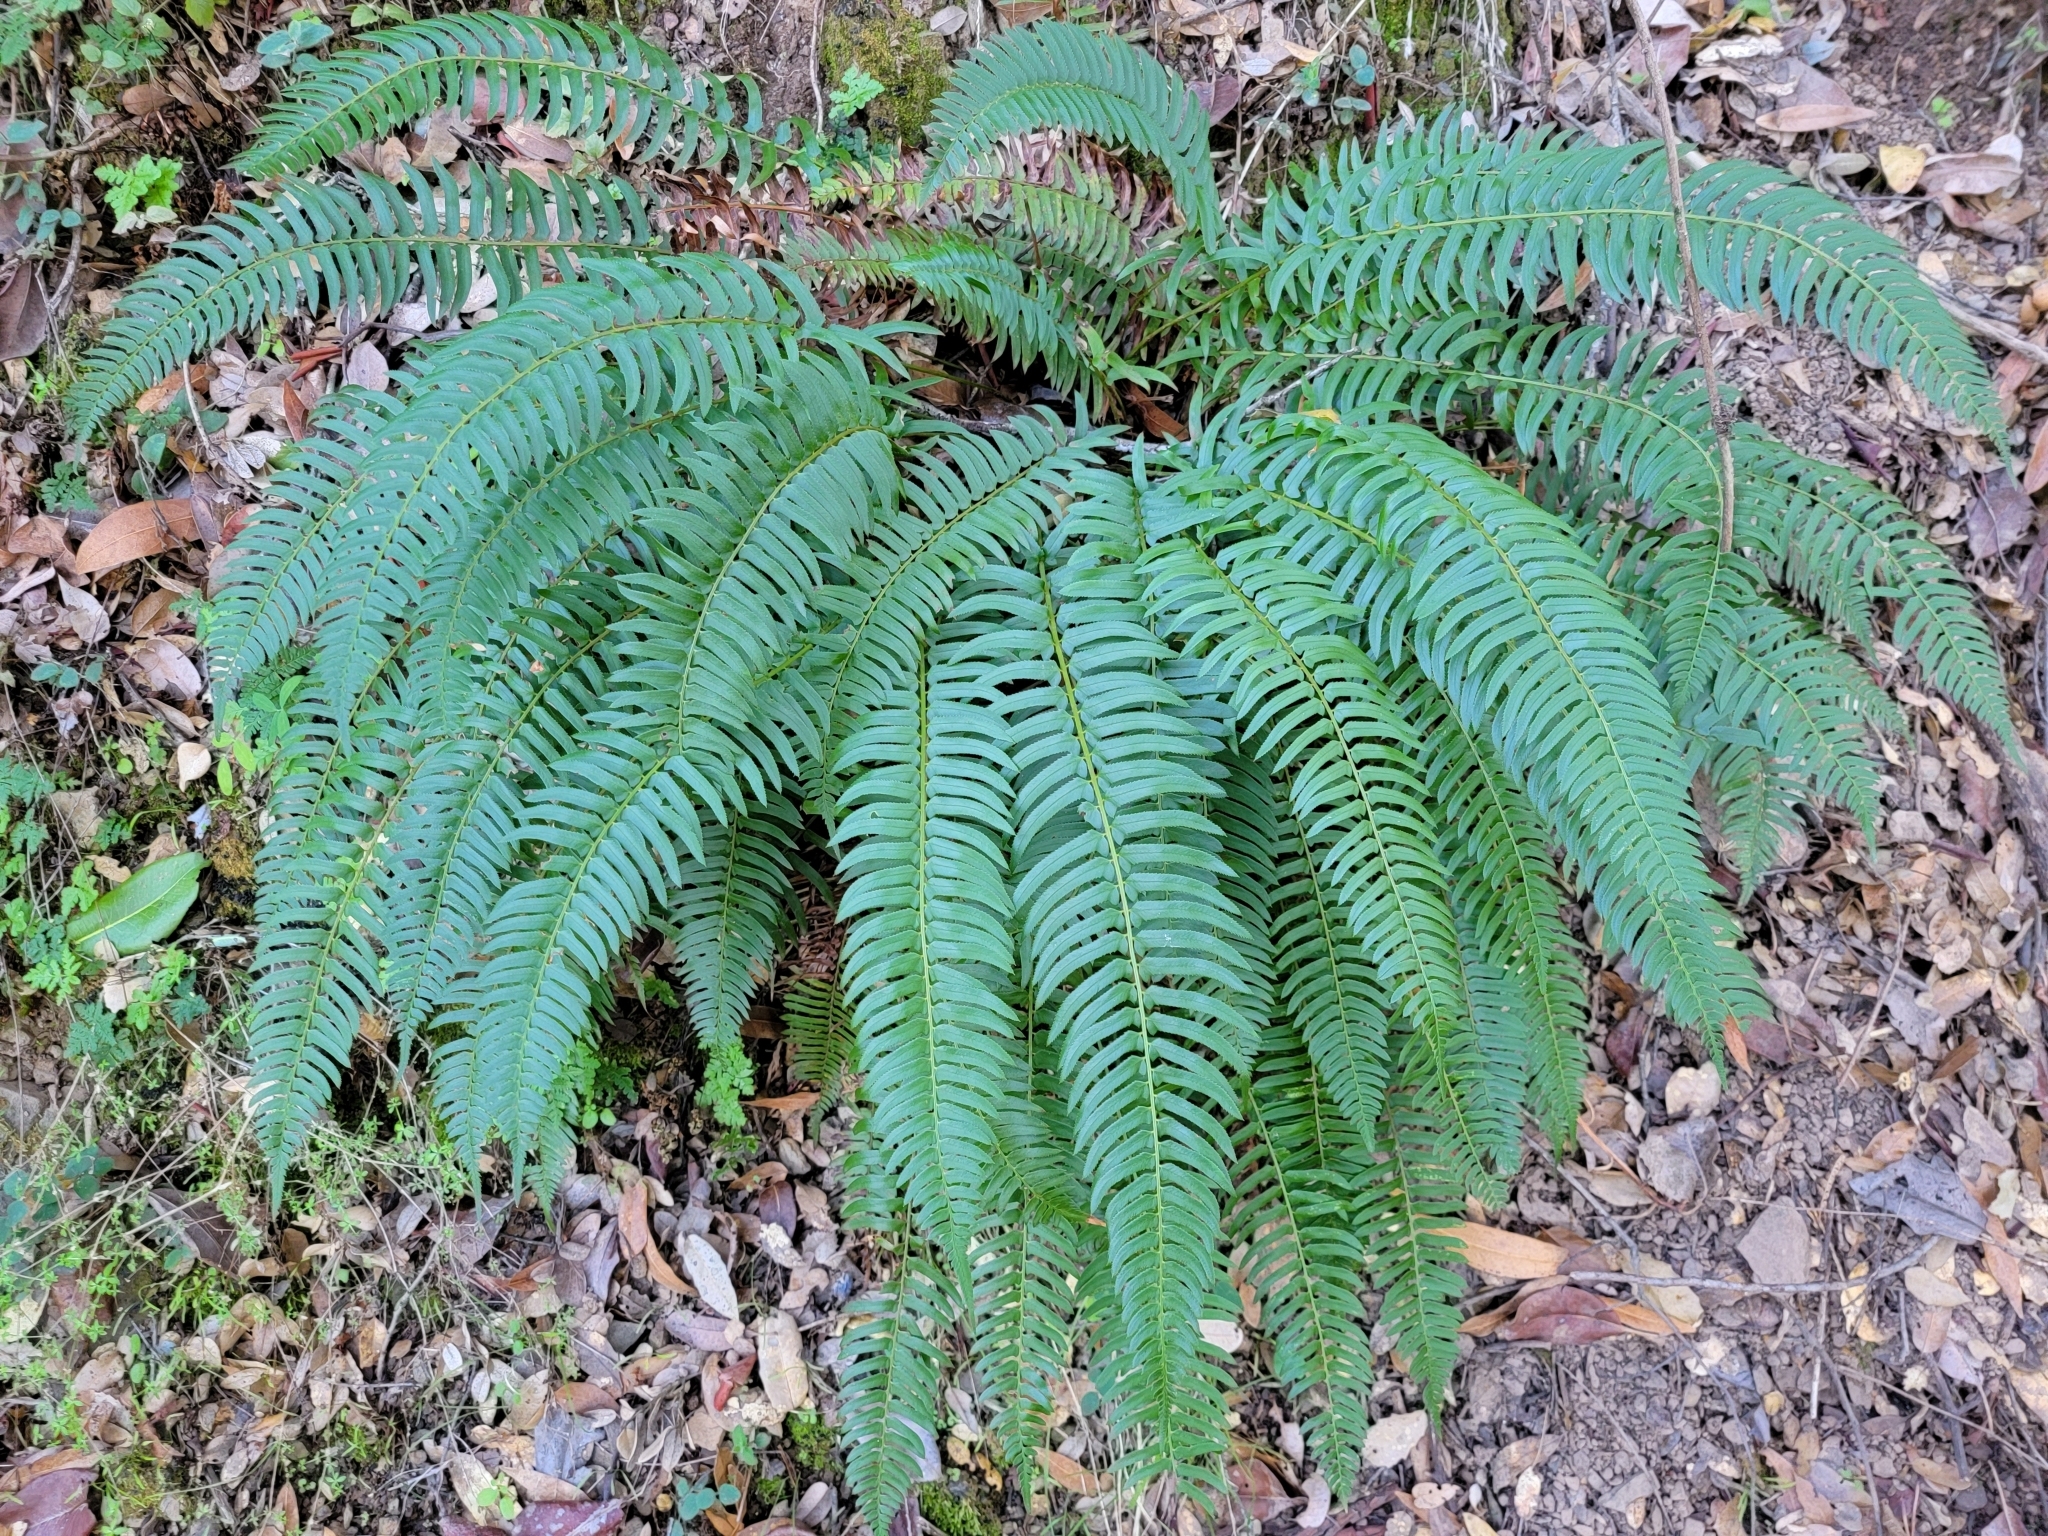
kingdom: Plantae
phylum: Tracheophyta
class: Polypodiopsida
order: Polypodiales
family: Dryopteridaceae
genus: Polystichum
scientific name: Polystichum munitum
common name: Western sword-fern
